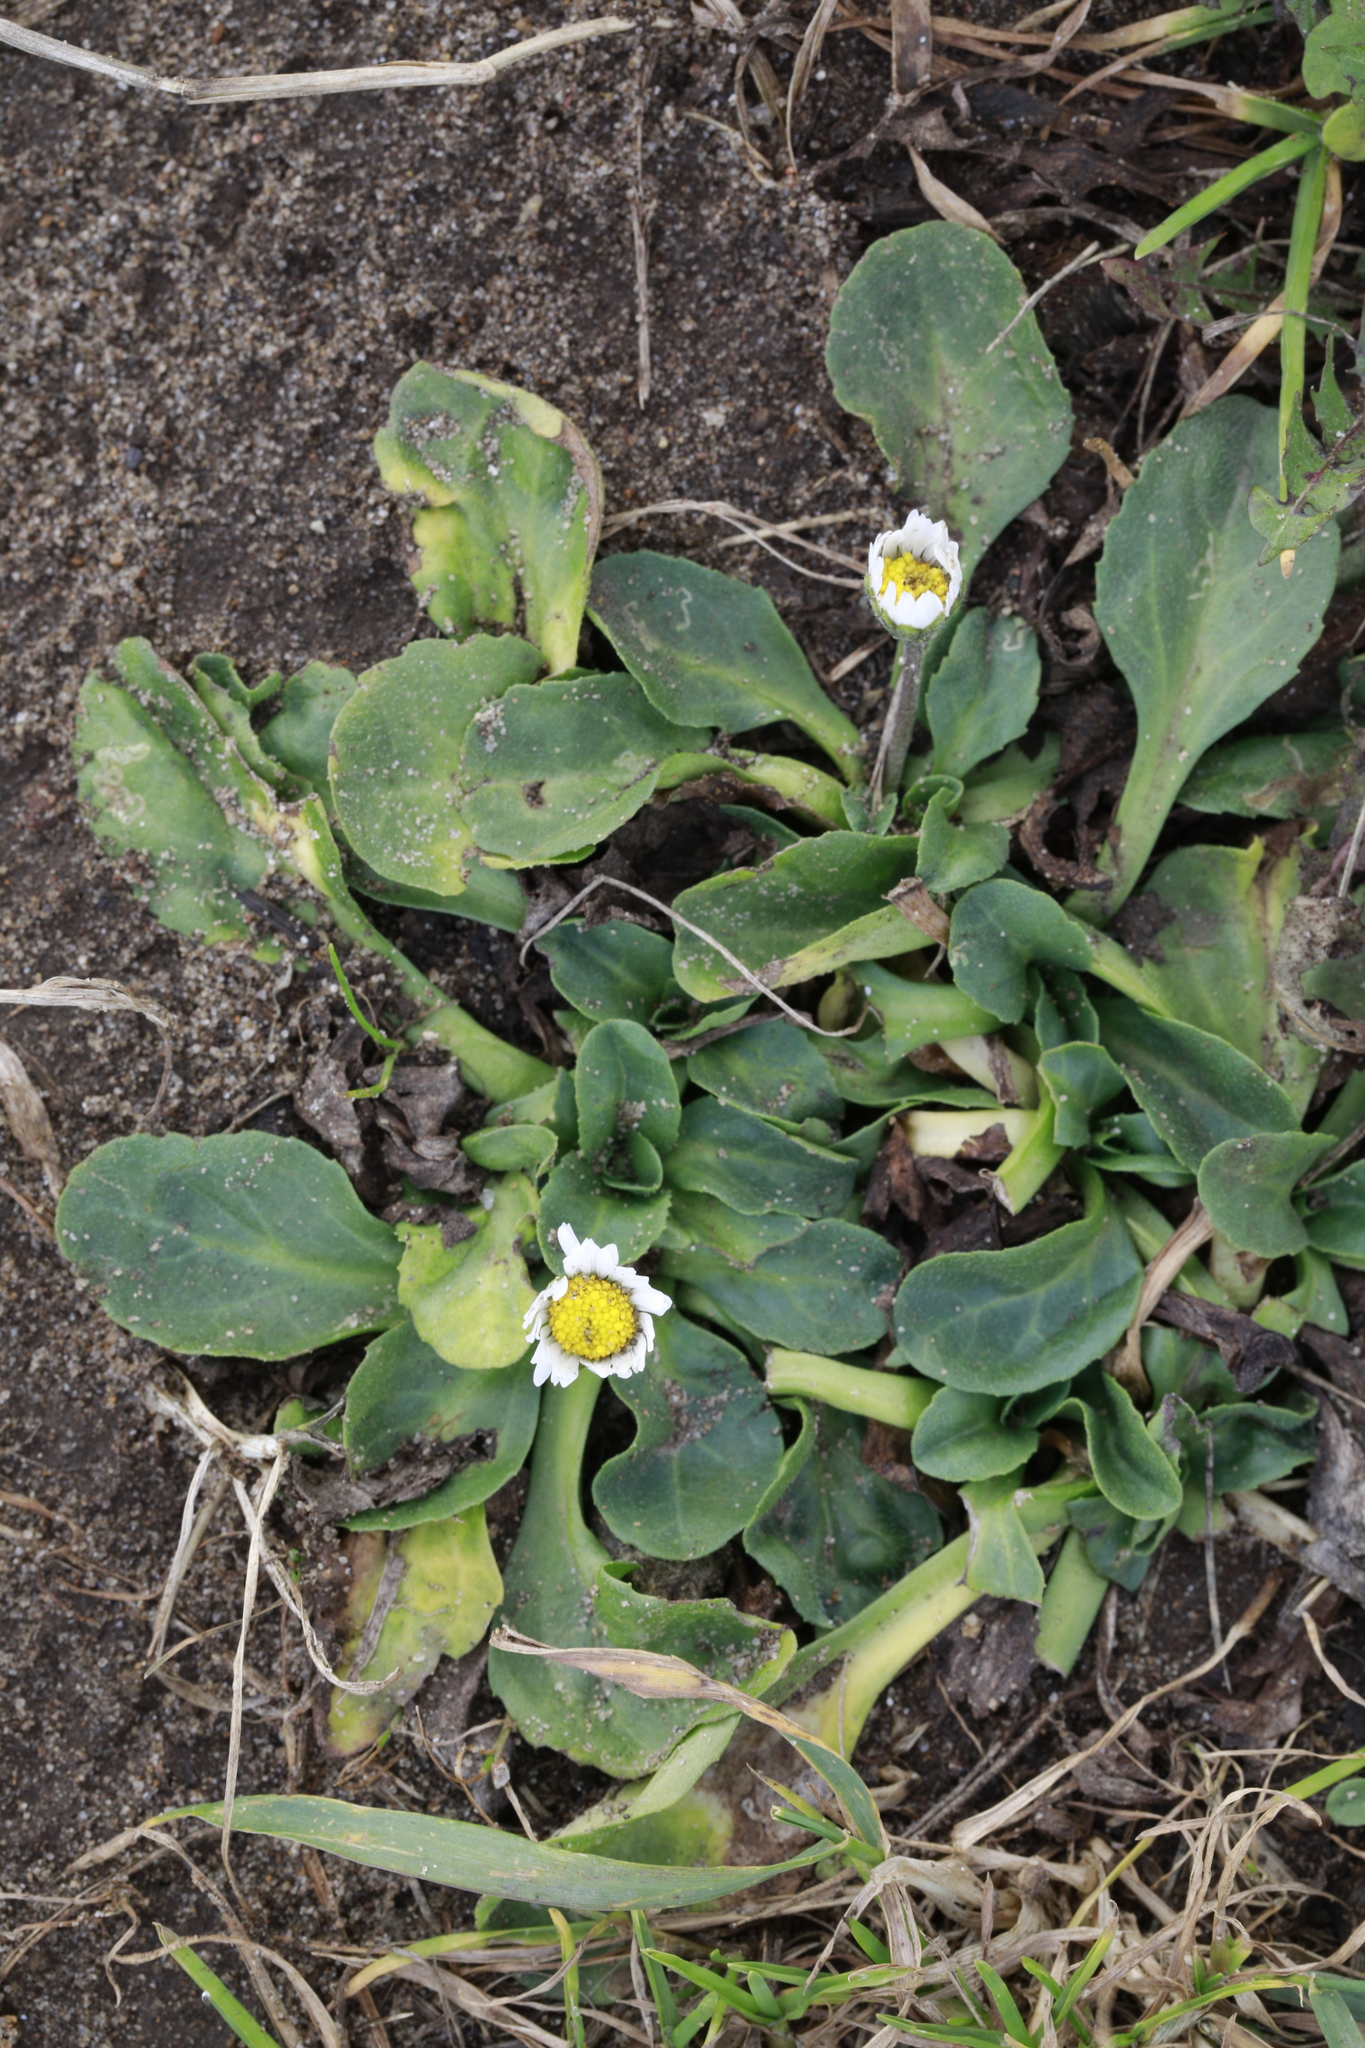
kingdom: Plantae
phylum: Tracheophyta
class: Magnoliopsida
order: Asterales
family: Asteraceae
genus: Bellis
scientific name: Bellis perennis
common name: Lawndaisy
